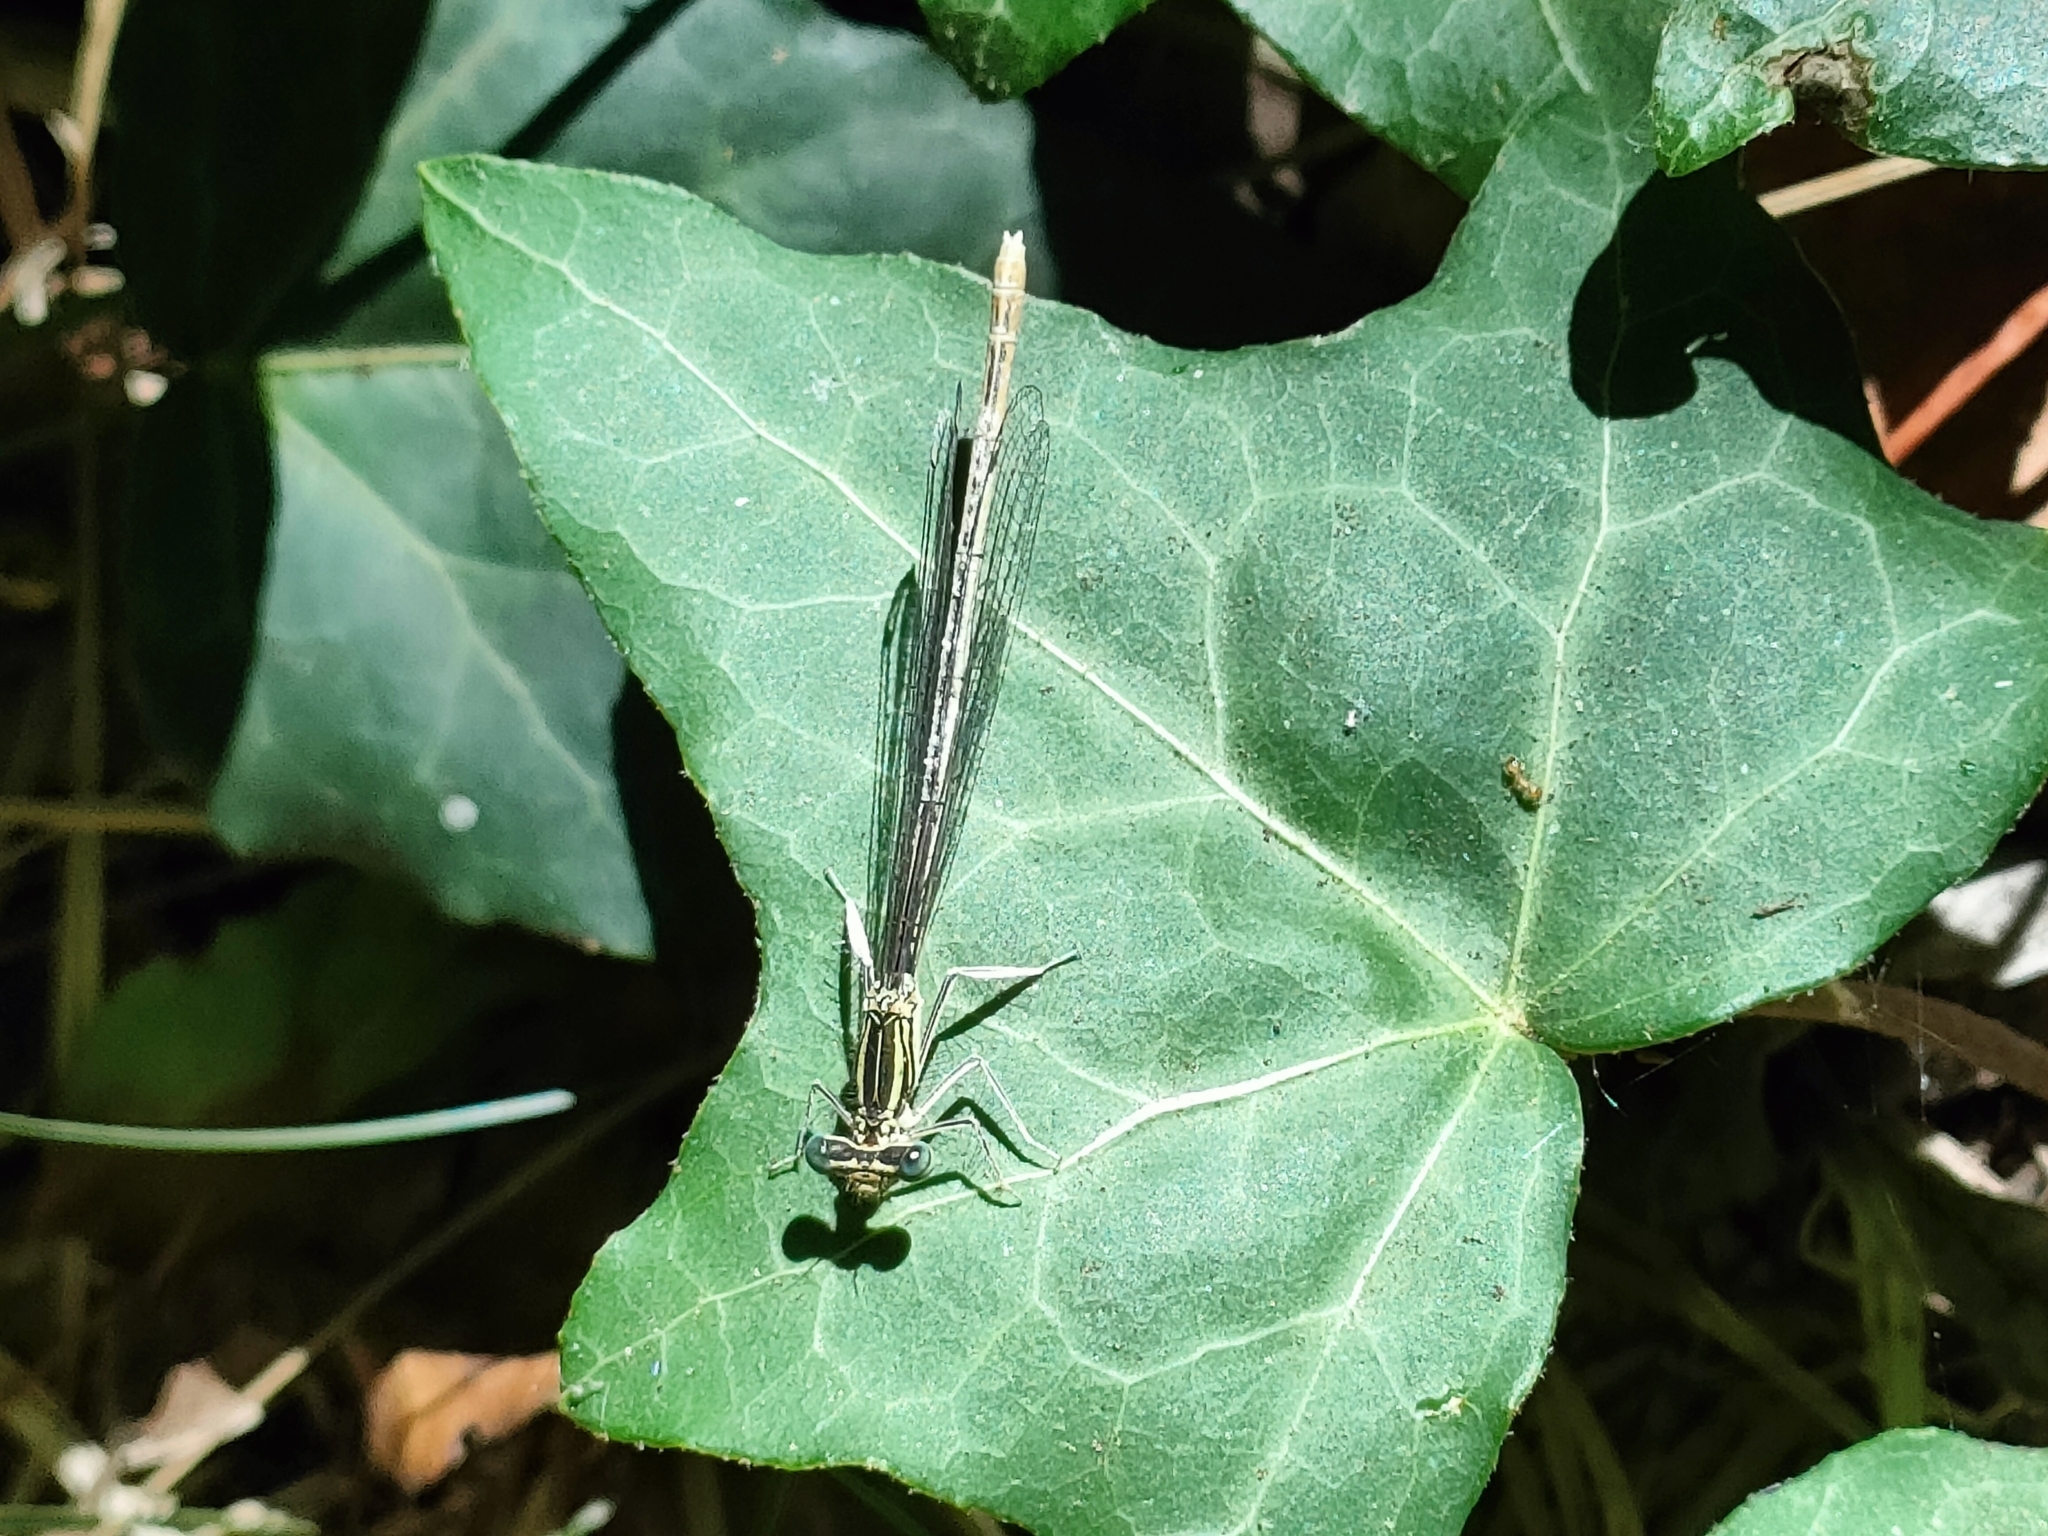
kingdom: Animalia
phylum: Arthropoda
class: Insecta
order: Odonata
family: Platycnemididae
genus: Platycnemis
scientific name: Platycnemis pennipes
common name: White-legged damselfly
